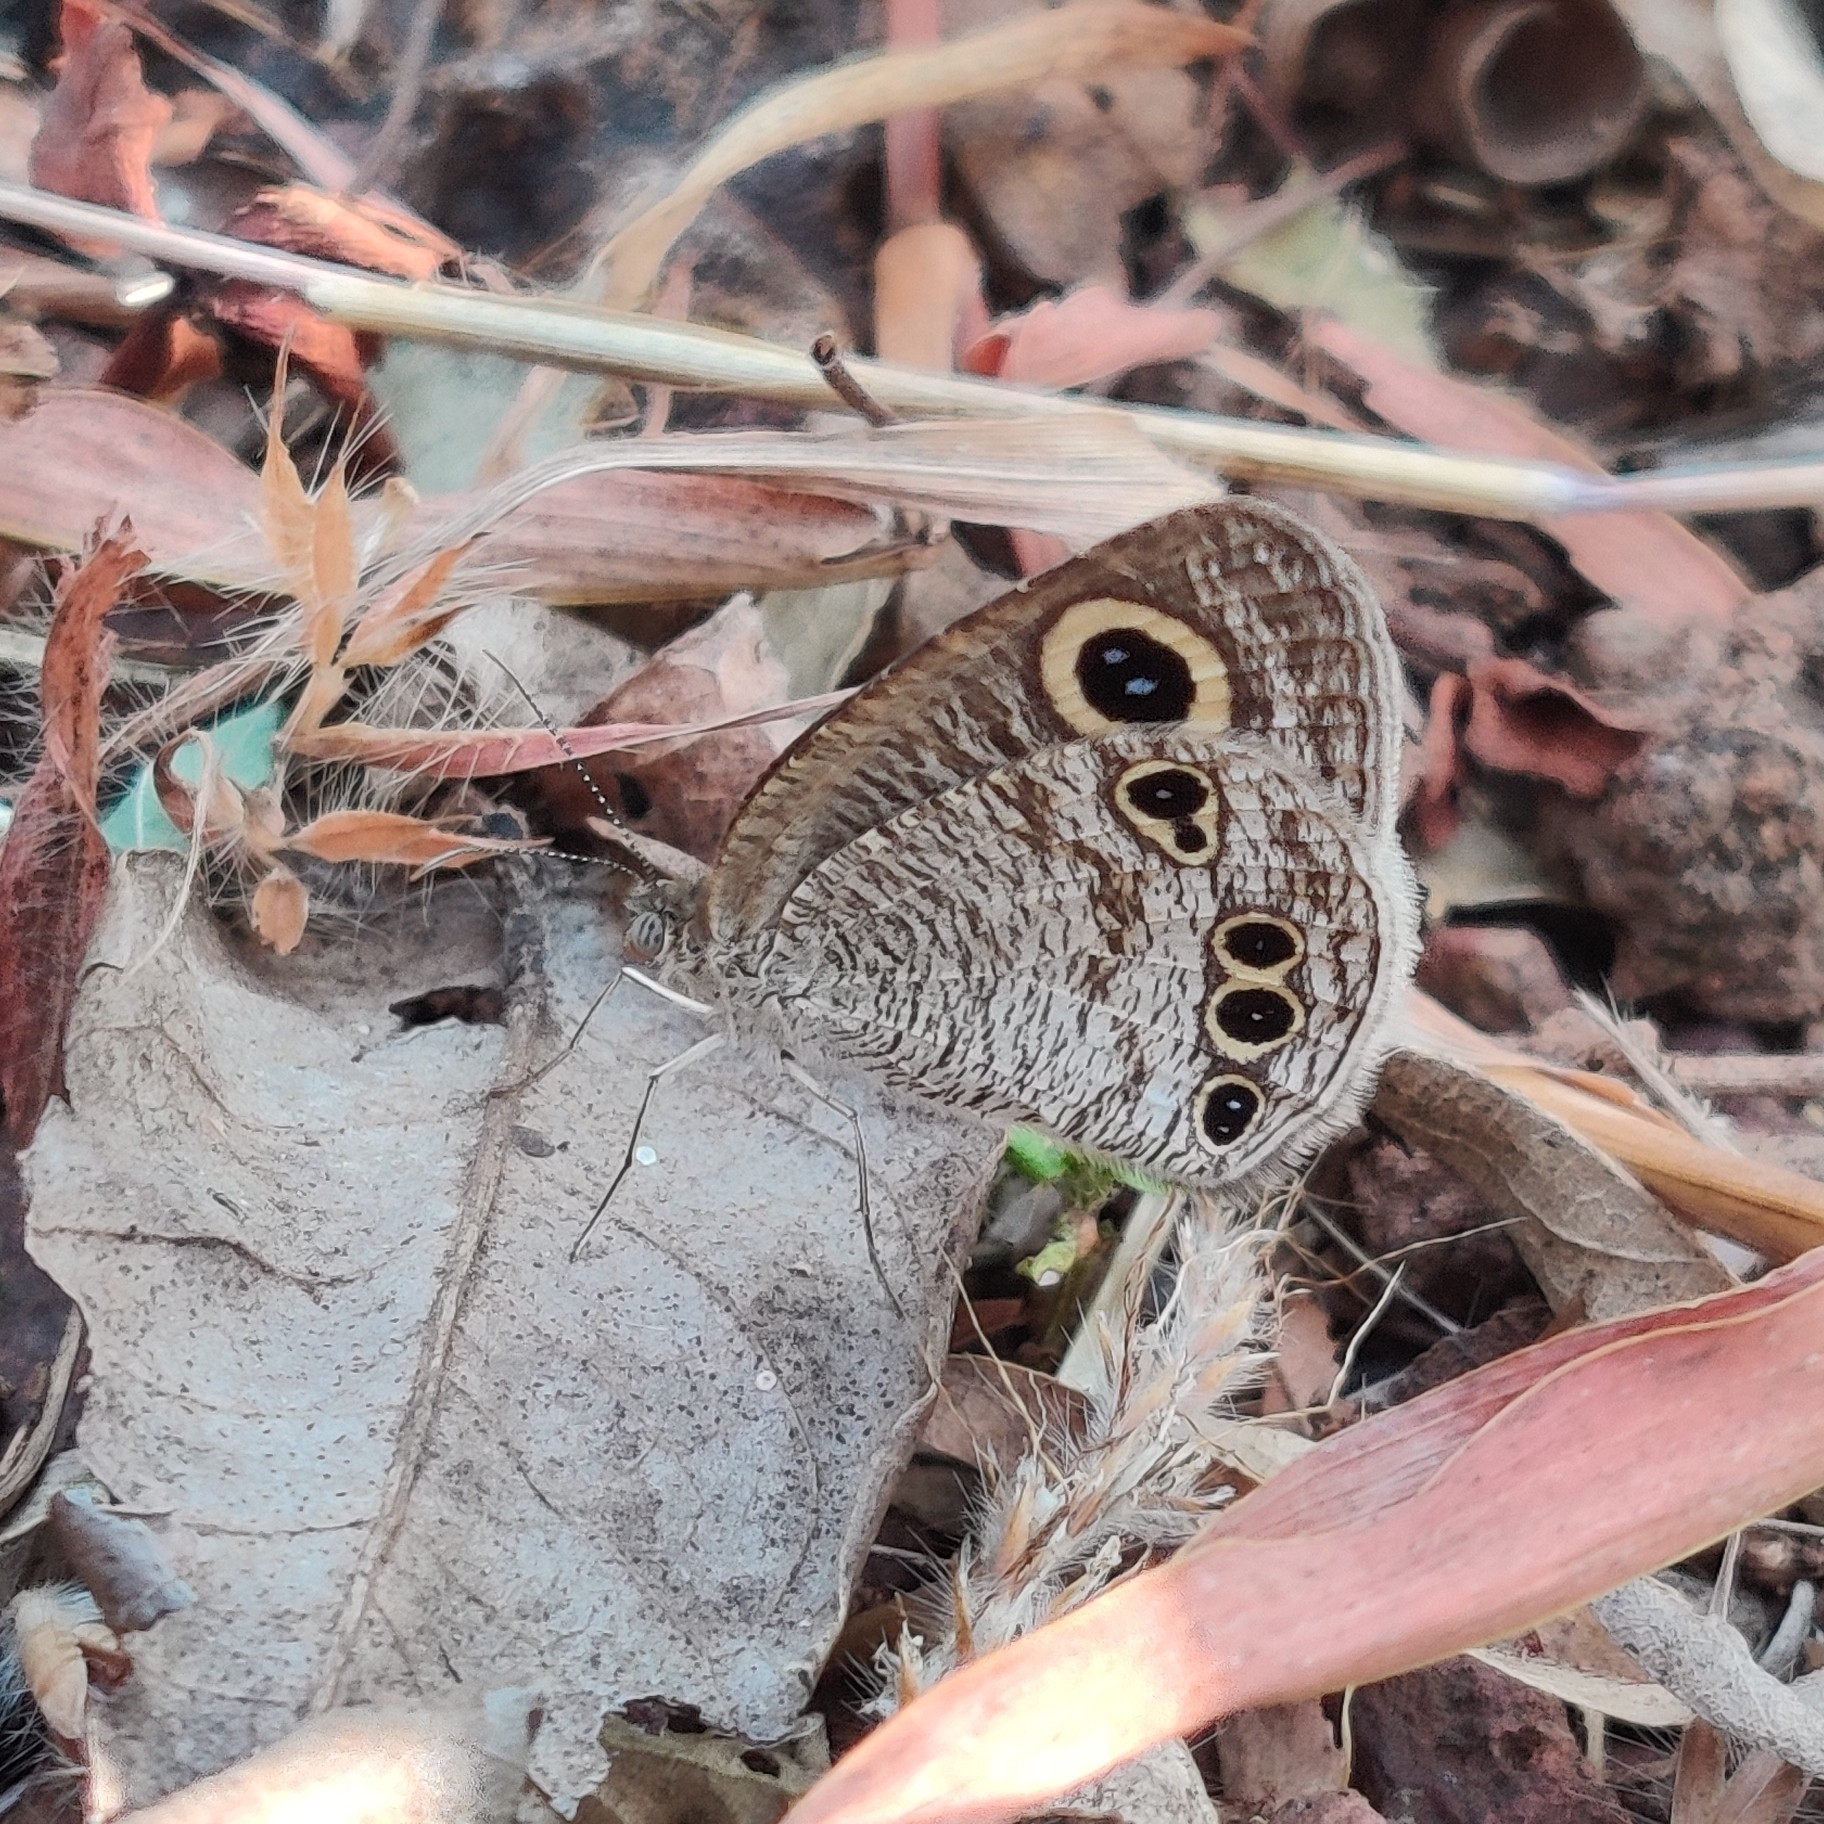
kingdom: Animalia
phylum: Arthropoda
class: Insecta
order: Lepidoptera
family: Nymphalidae
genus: Ypthima
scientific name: Ypthima huebneri
